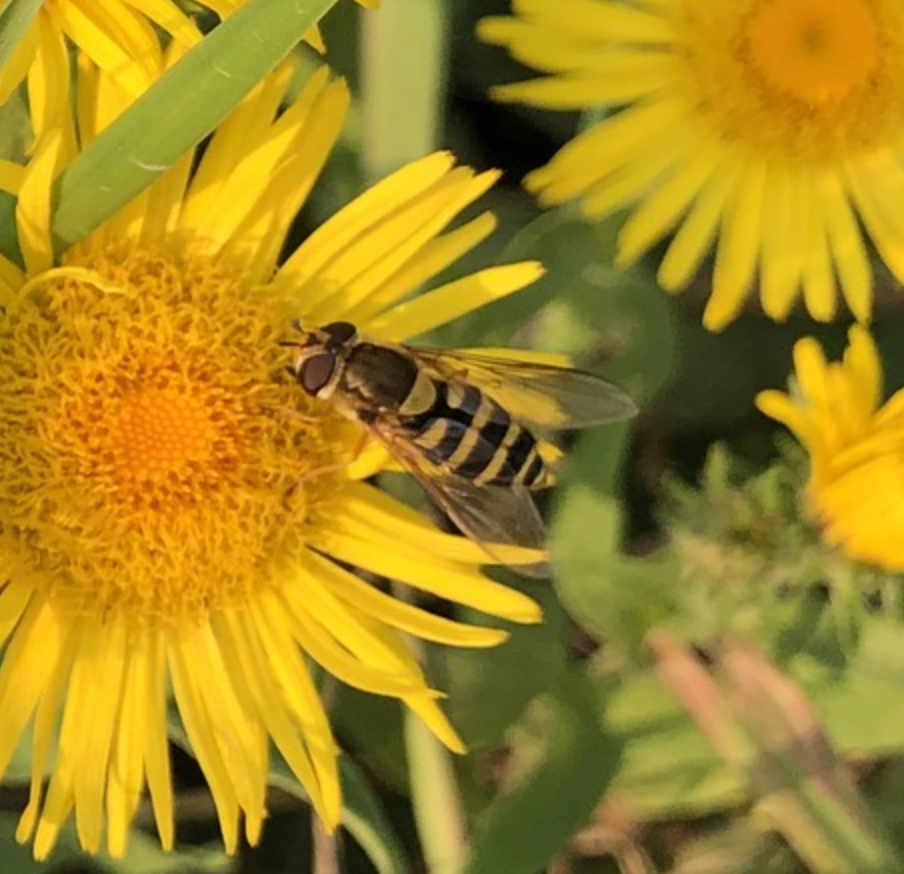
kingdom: Animalia
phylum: Arthropoda
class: Insecta
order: Diptera
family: Syrphidae
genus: Syrphus
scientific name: Syrphus
